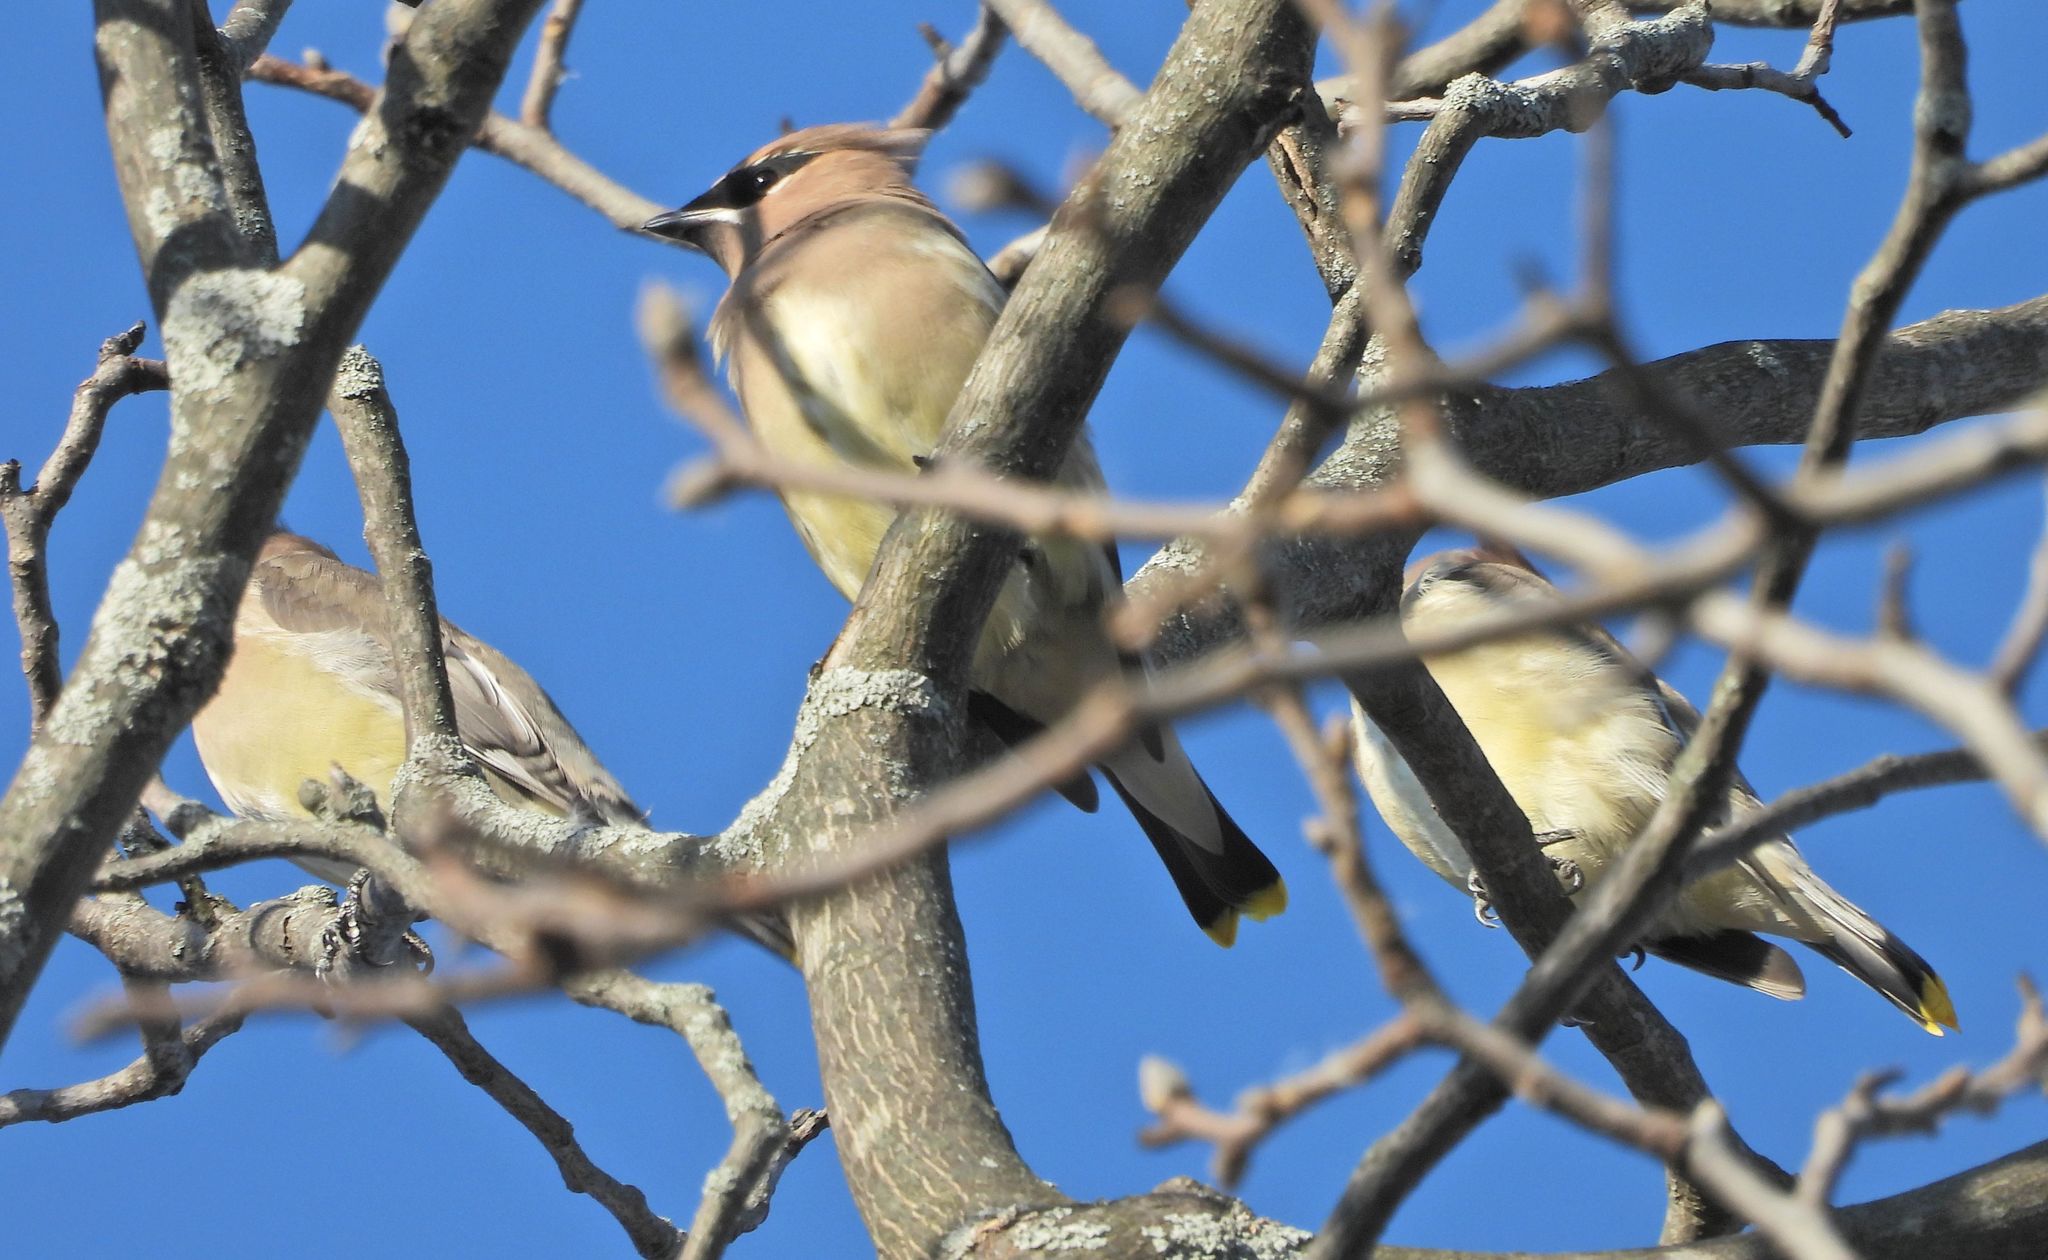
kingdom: Animalia
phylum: Chordata
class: Aves
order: Passeriformes
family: Bombycillidae
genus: Bombycilla
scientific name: Bombycilla cedrorum
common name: Cedar waxwing
